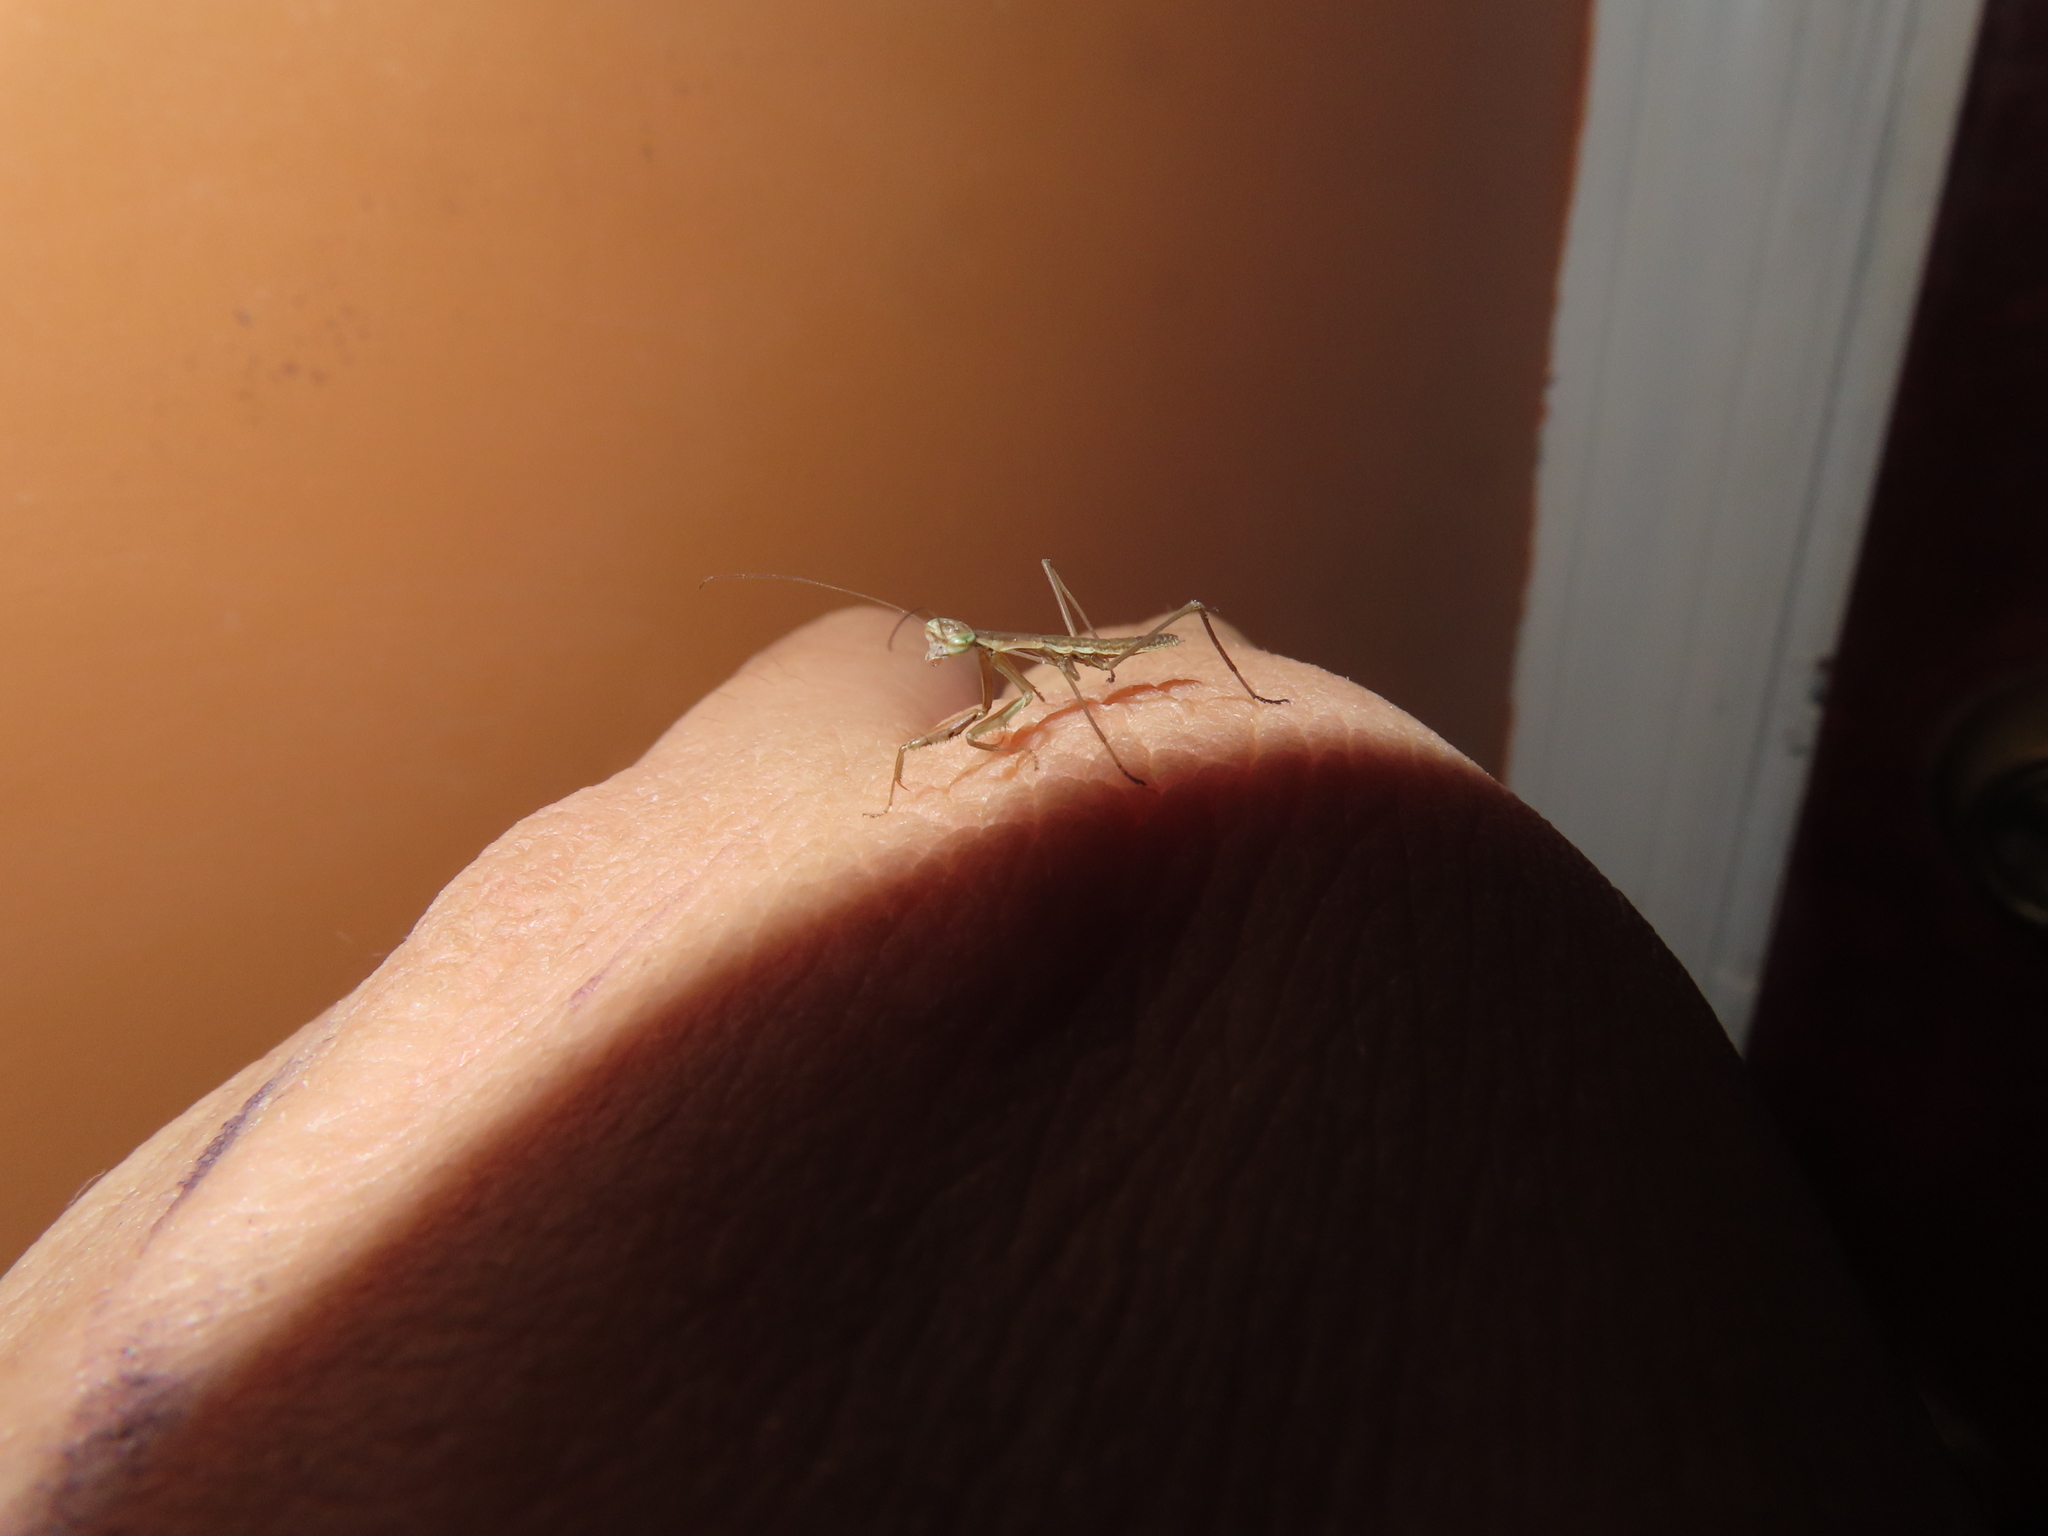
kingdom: Animalia
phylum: Arthropoda
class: Insecta
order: Mantodea
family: Mantidae
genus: Tenodera
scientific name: Tenodera sinensis
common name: Chinese mantis
